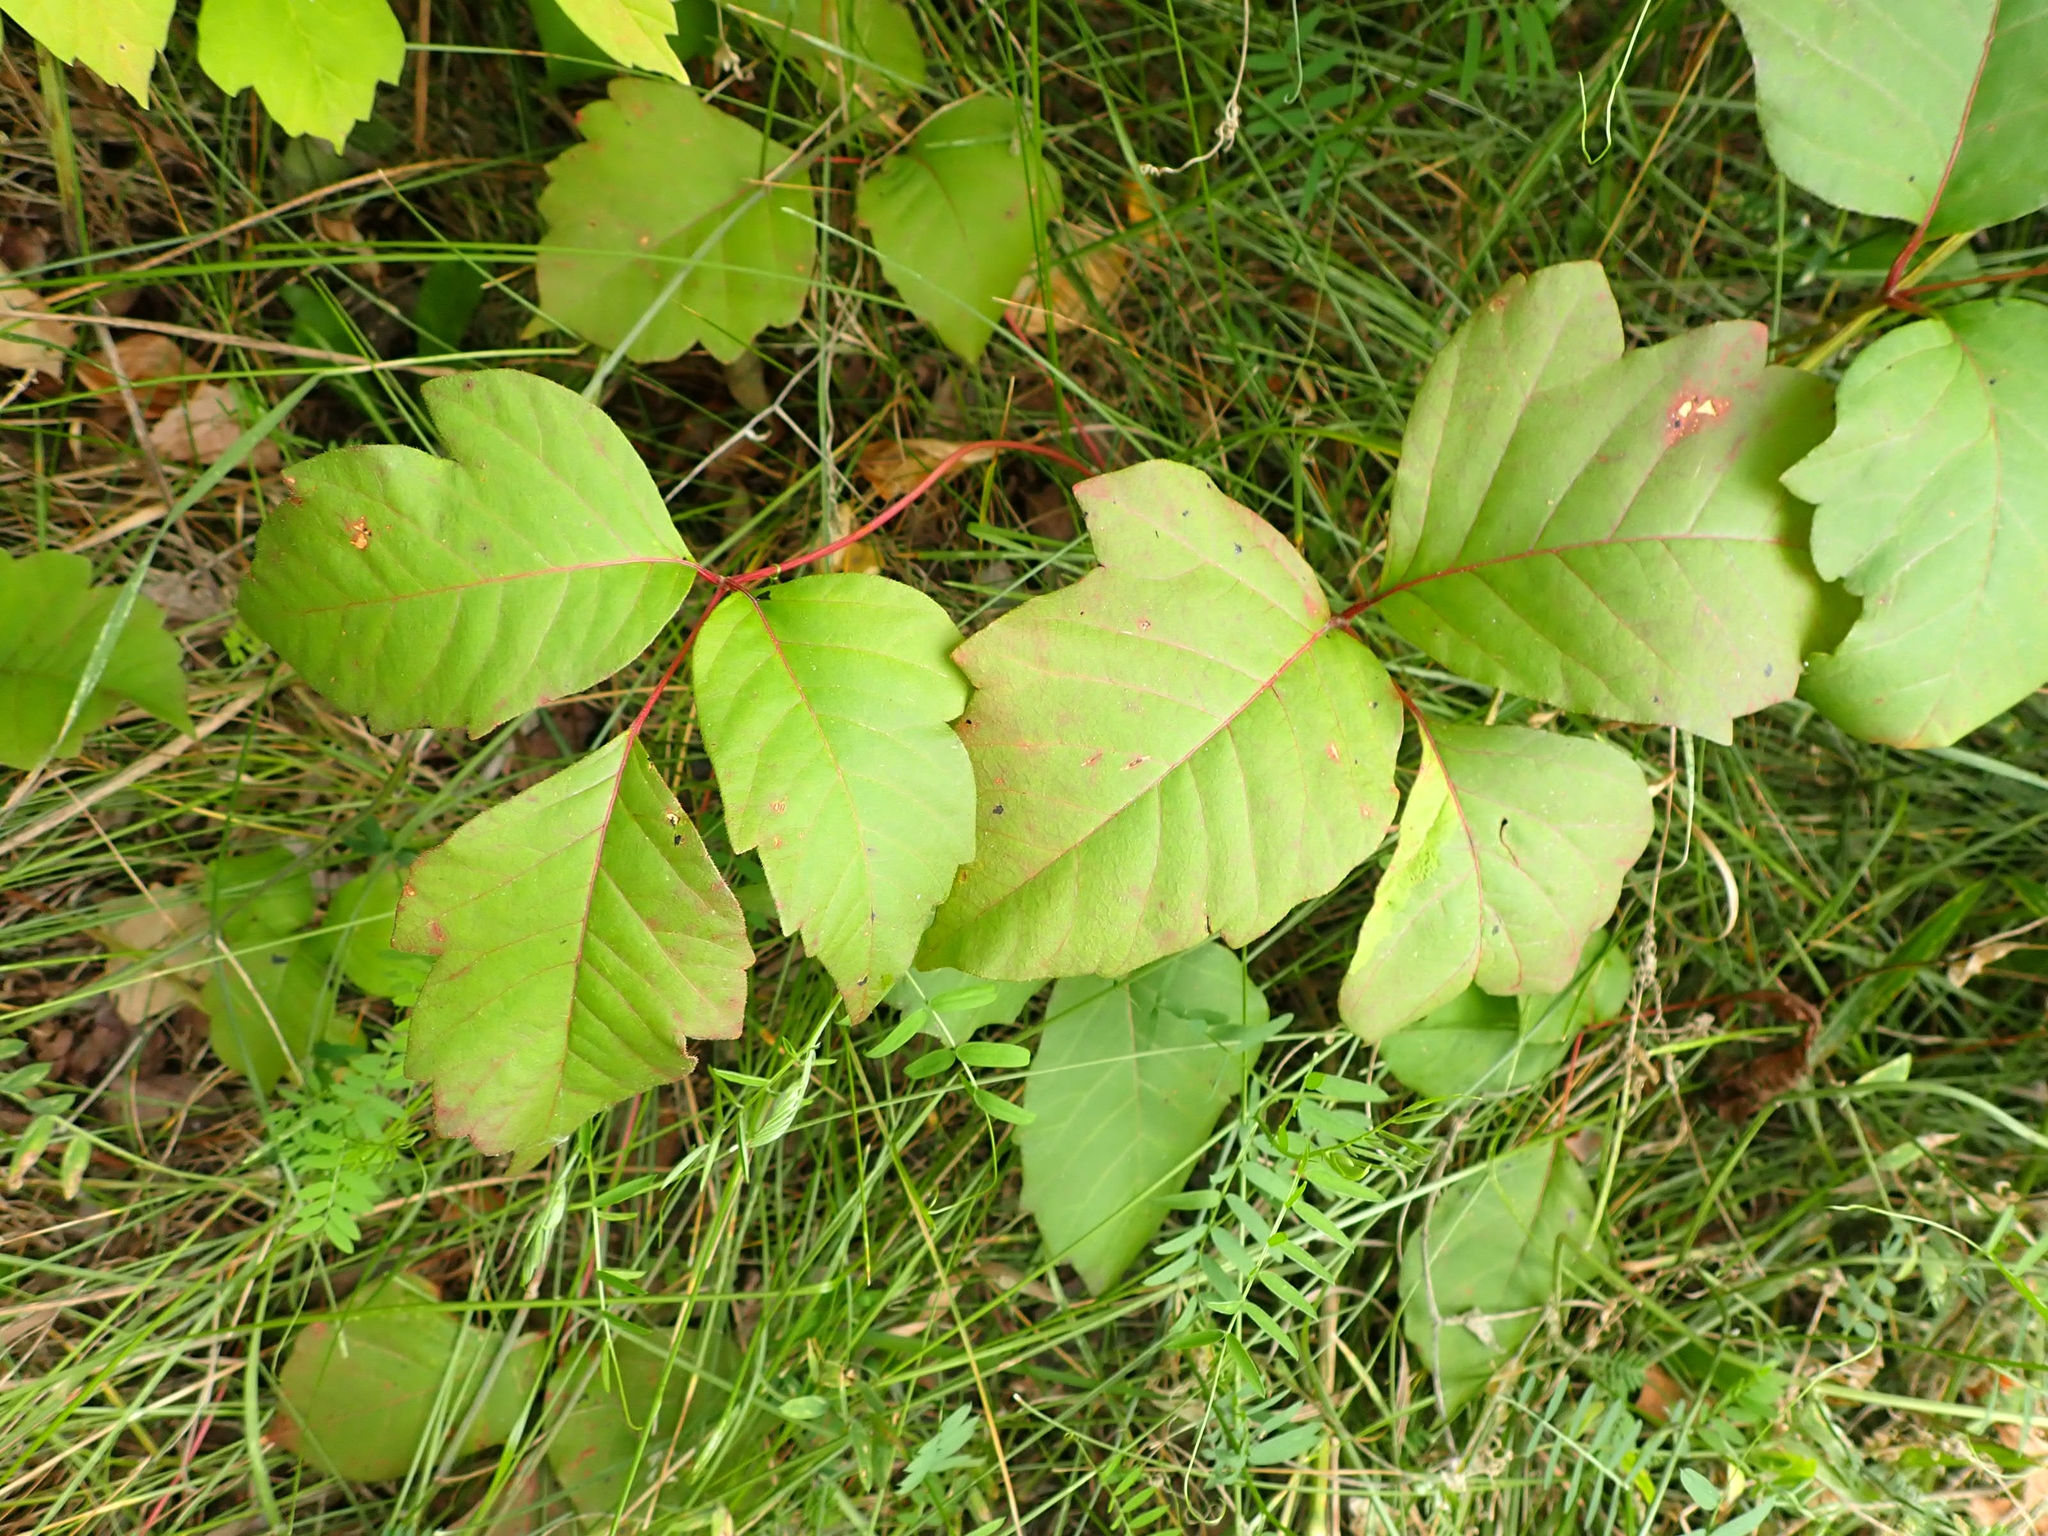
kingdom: Plantae
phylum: Tracheophyta
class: Magnoliopsida
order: Sapindales
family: Anacardiaceae
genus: Toxicodendron
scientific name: Toxicodendron rydbergii
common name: Rydberg's poison-ivy
